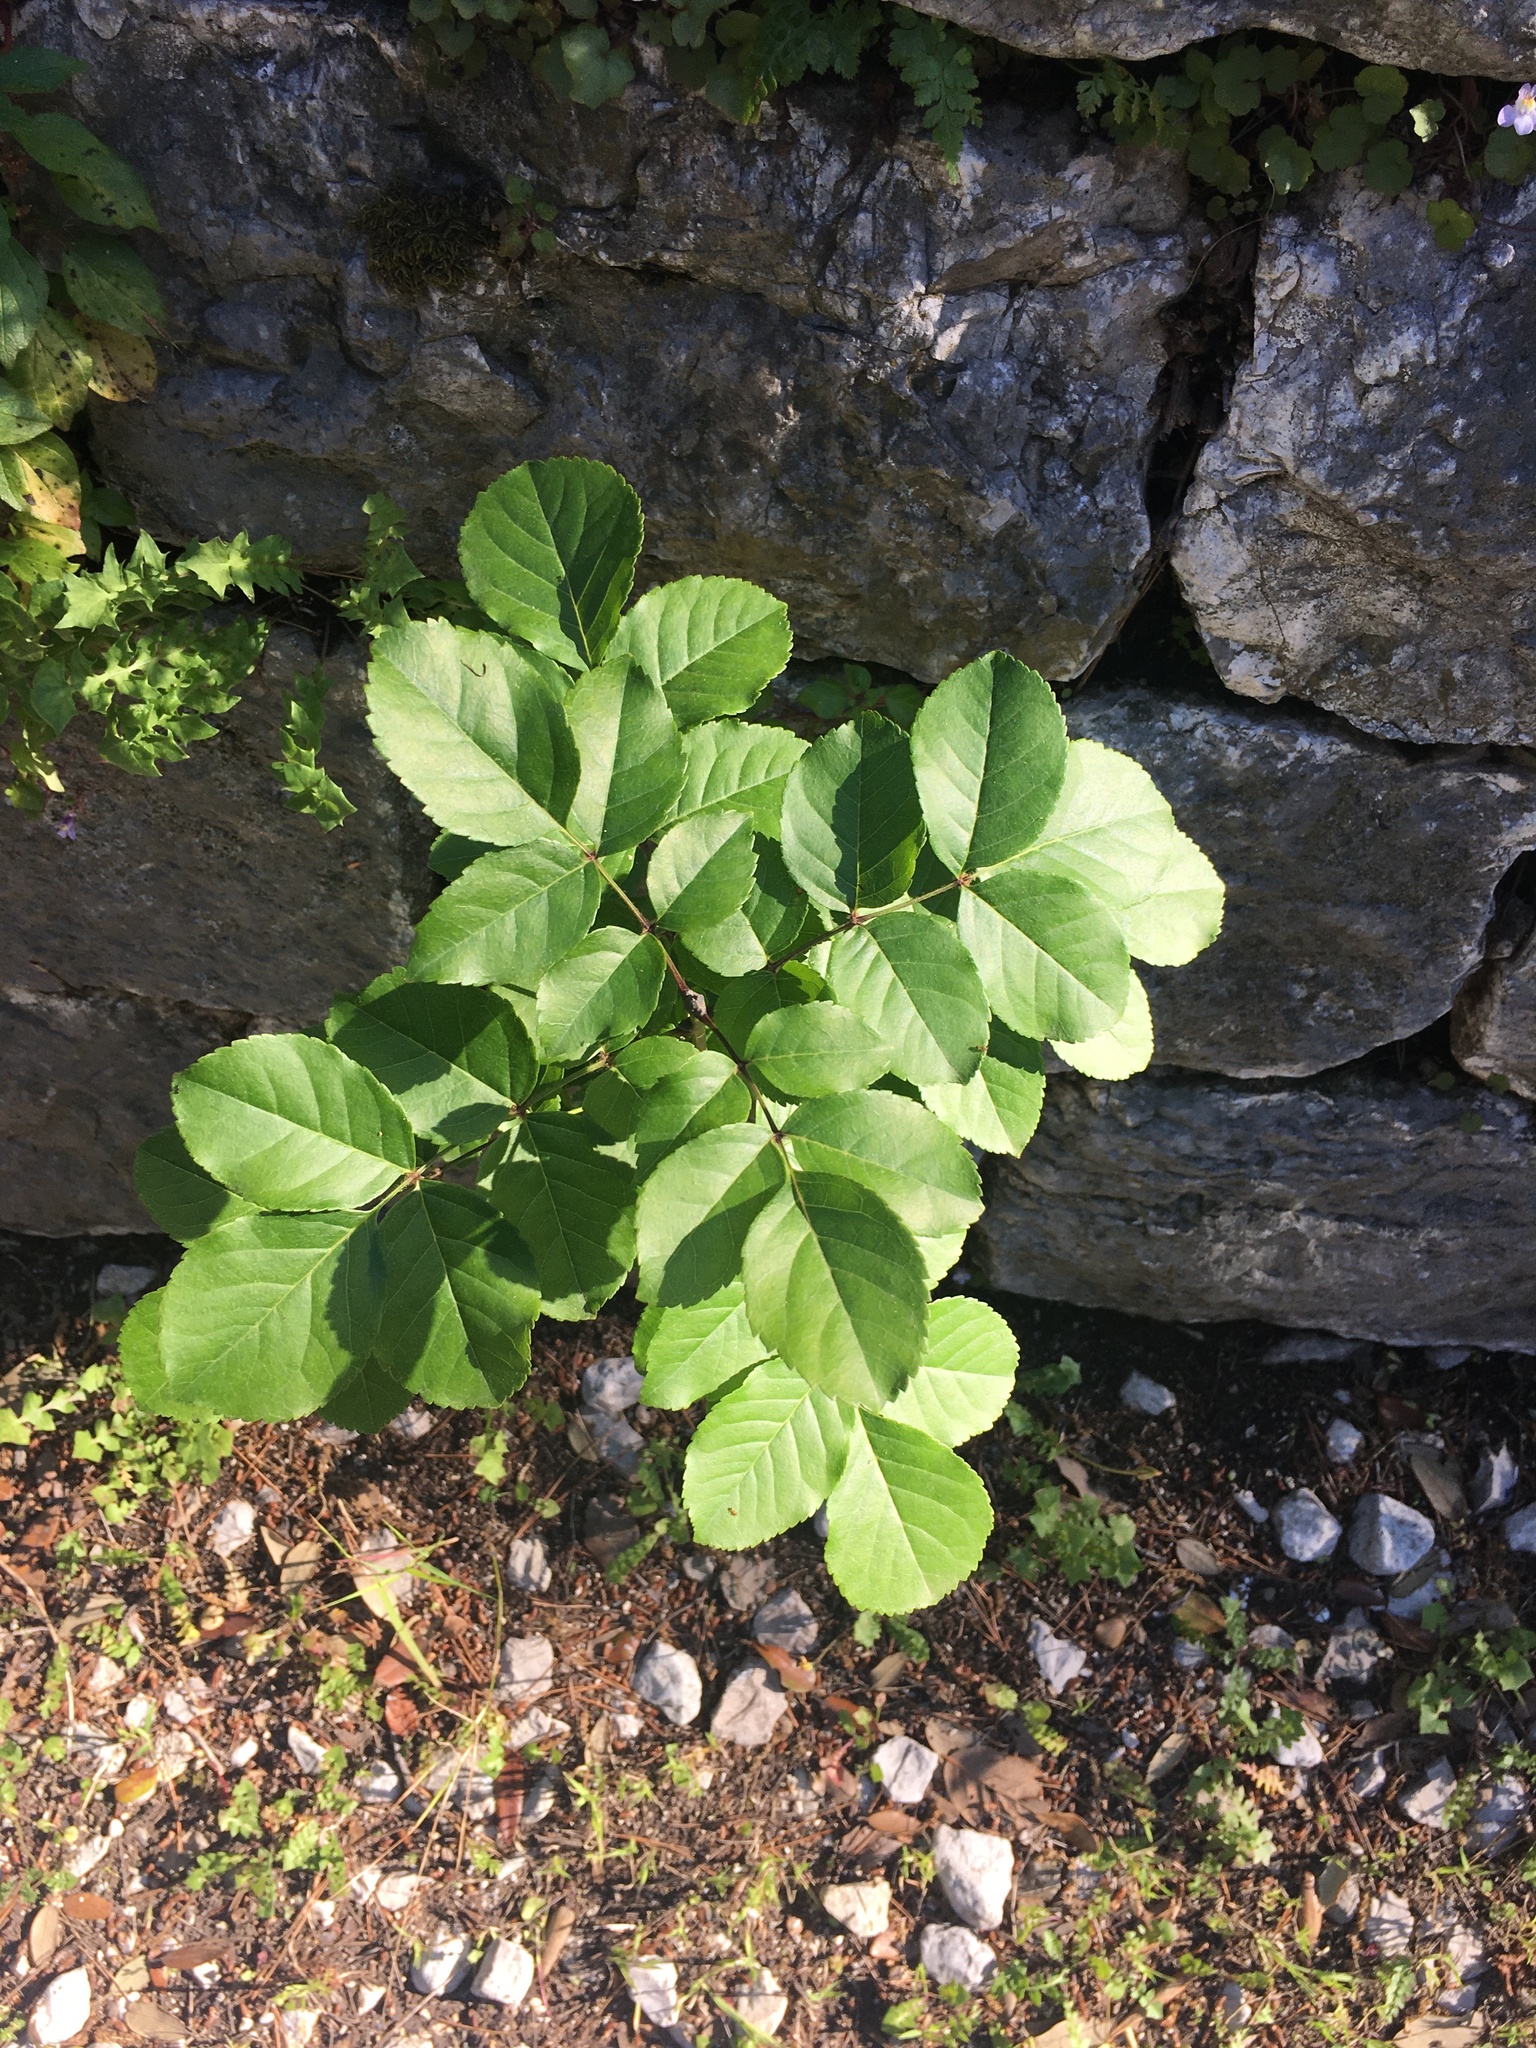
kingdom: Plantae
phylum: Tracheophyta
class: Magnoliopsida
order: Lamiales
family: Oleaceae
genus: Fraxinus
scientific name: Fraxinus ornus
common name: Manna ash
